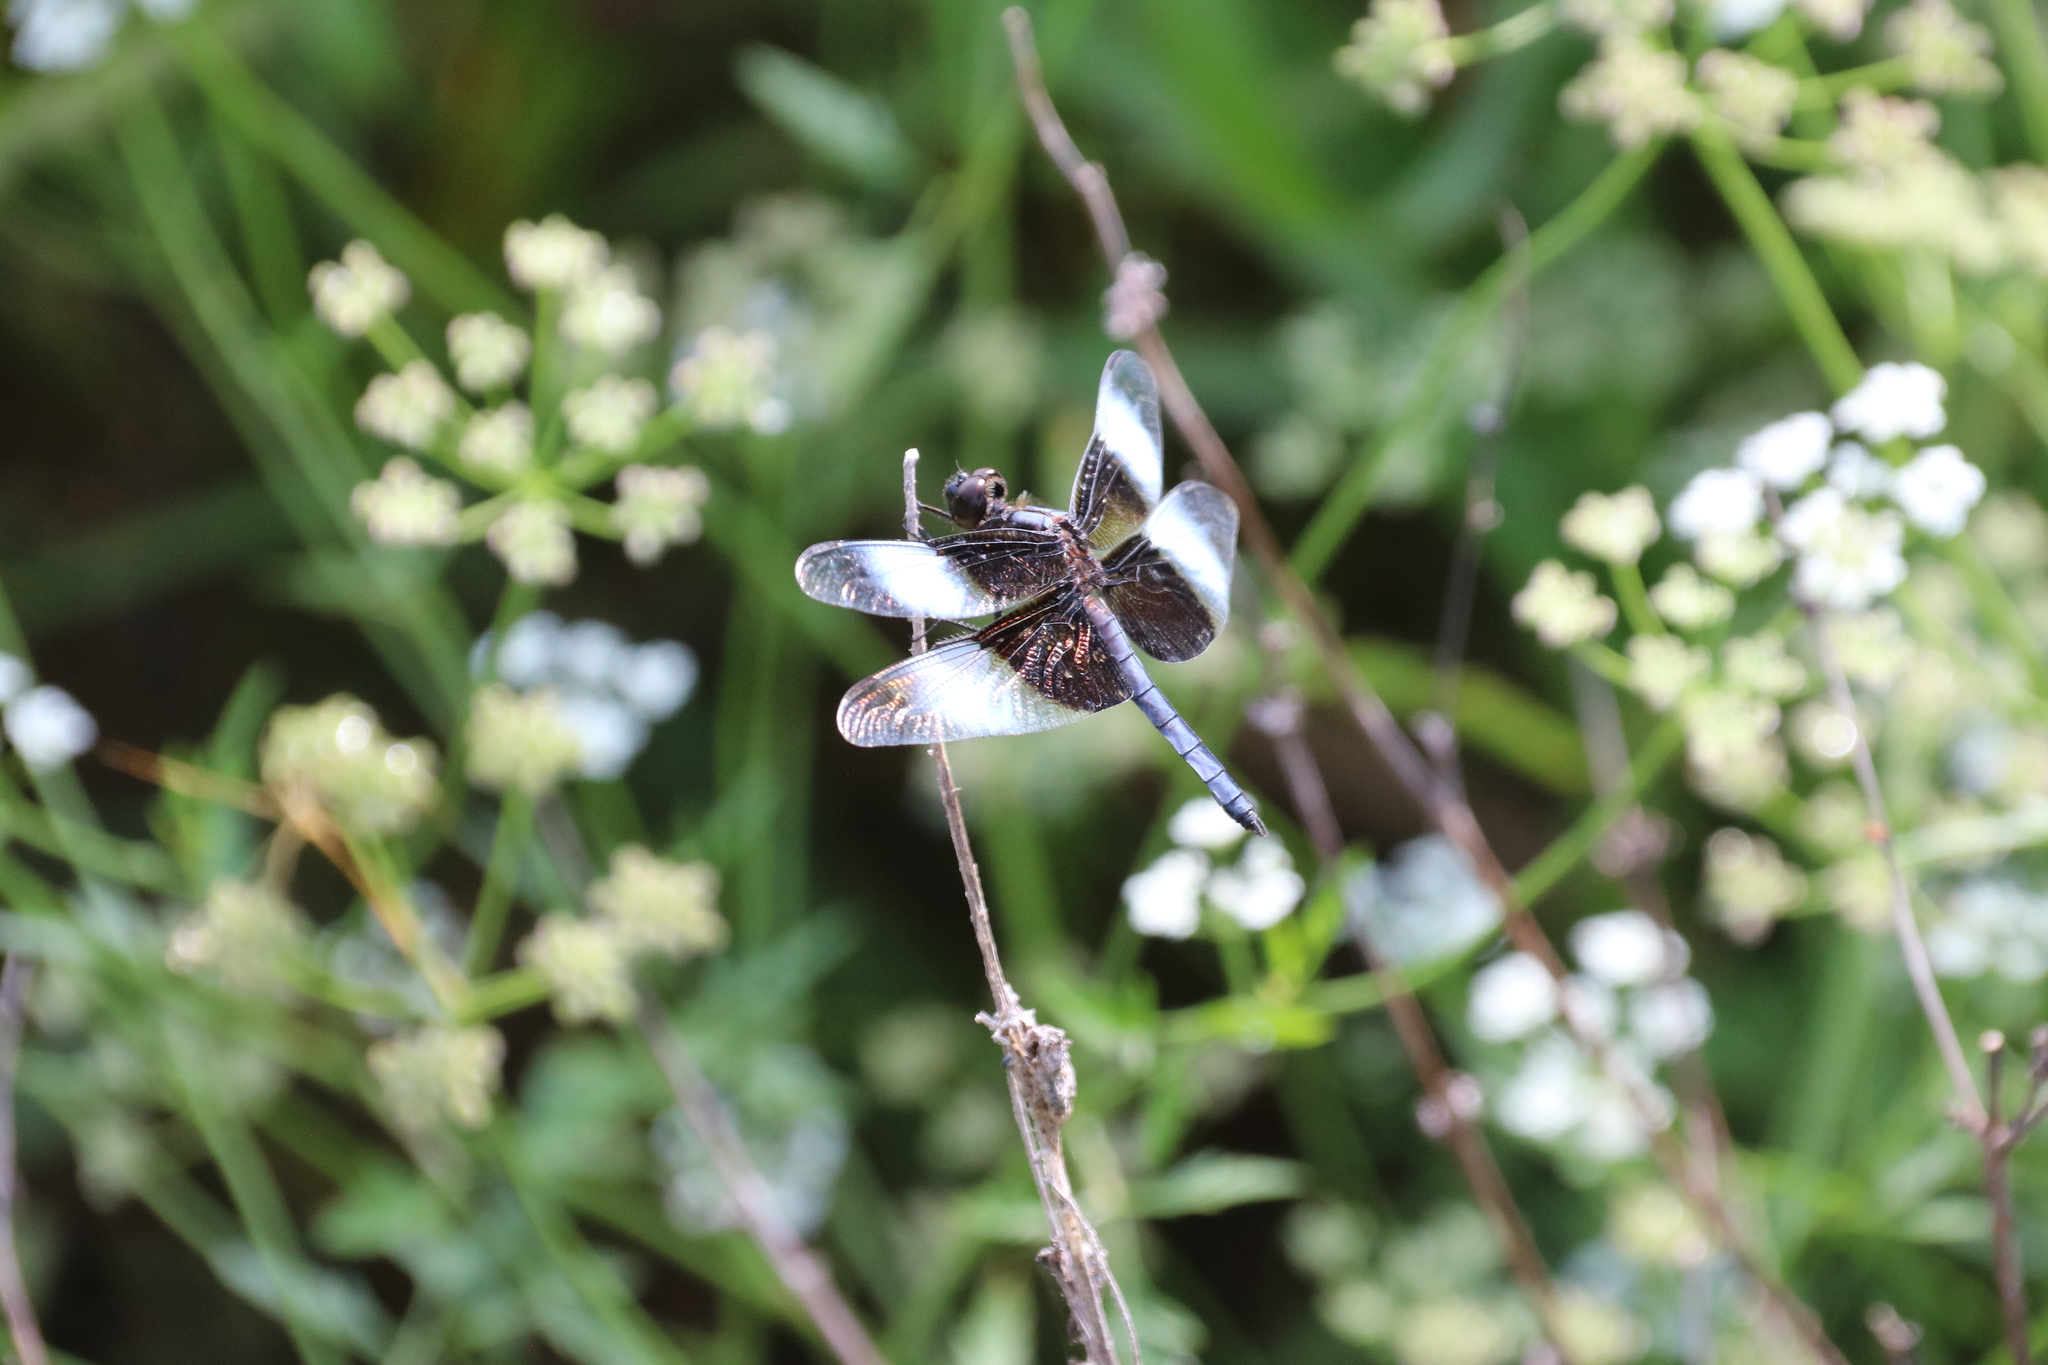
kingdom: Animalia
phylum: Arthropoda
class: Insecta
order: Odonata
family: Libellulidae
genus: Libellula
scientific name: Libellula luctuosa
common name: Widow skimmer
